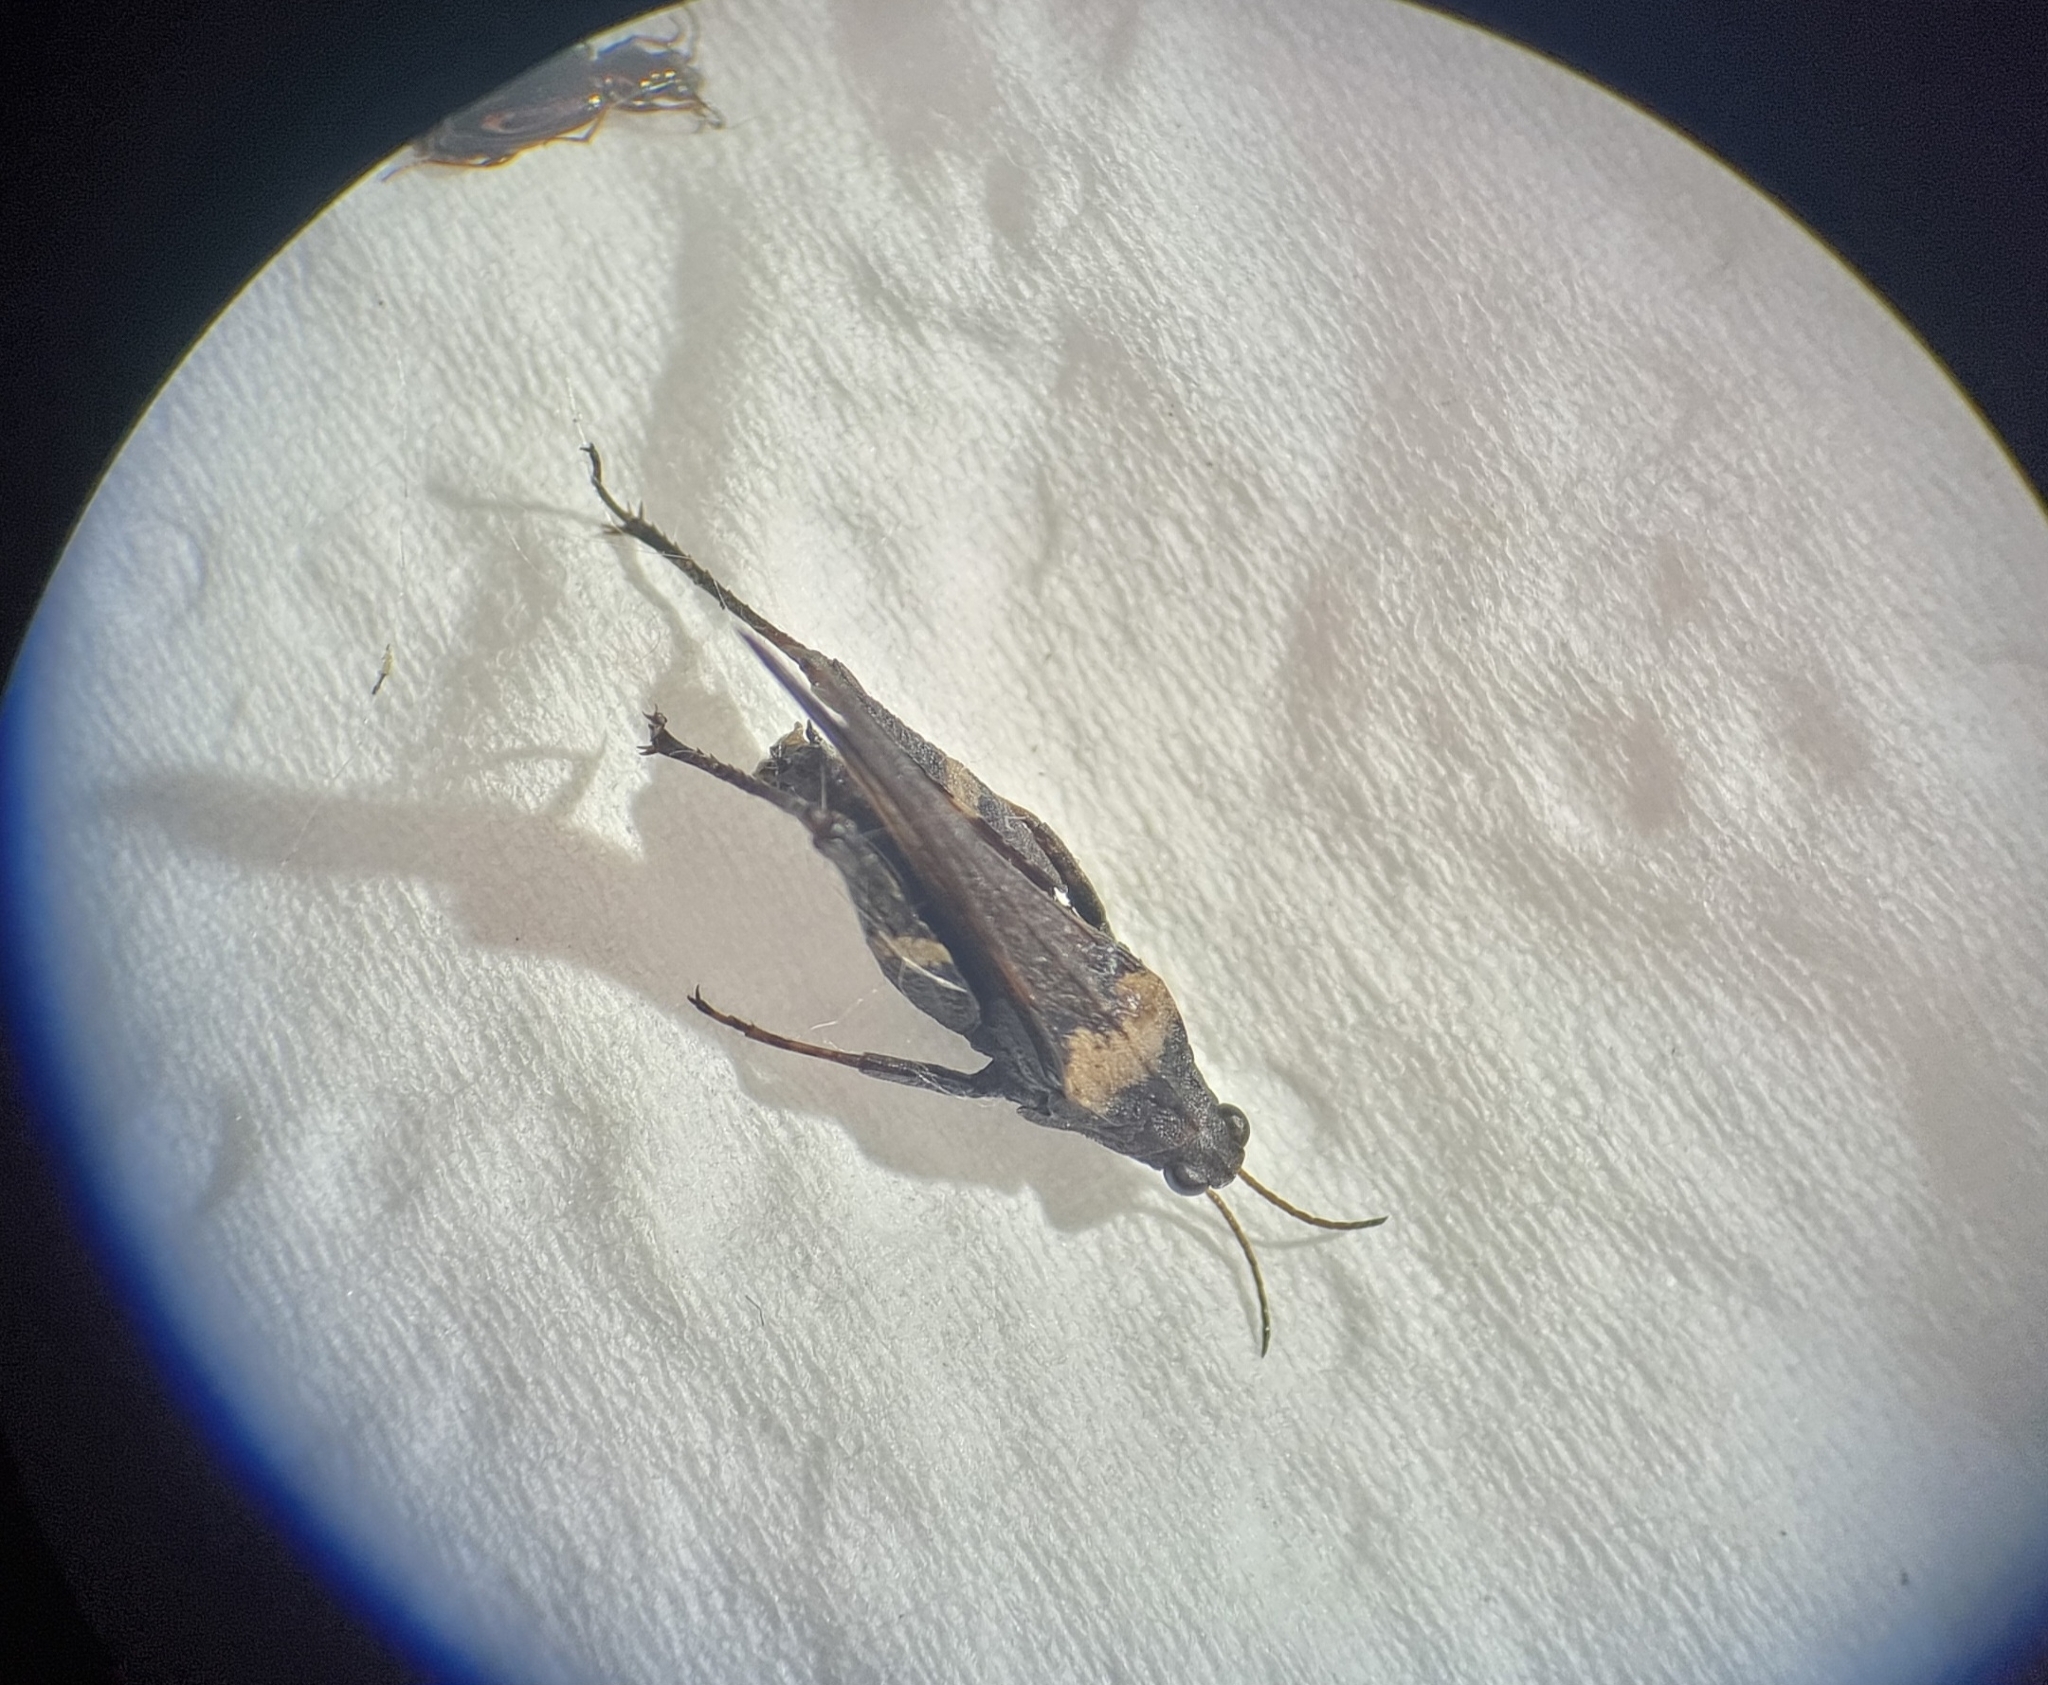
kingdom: Animalia
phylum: Arthropoda
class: Insecta
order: Orthoptera
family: Tetrigidae
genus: Tetrix
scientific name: Tetrix subulata
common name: Slender ground-hopper
